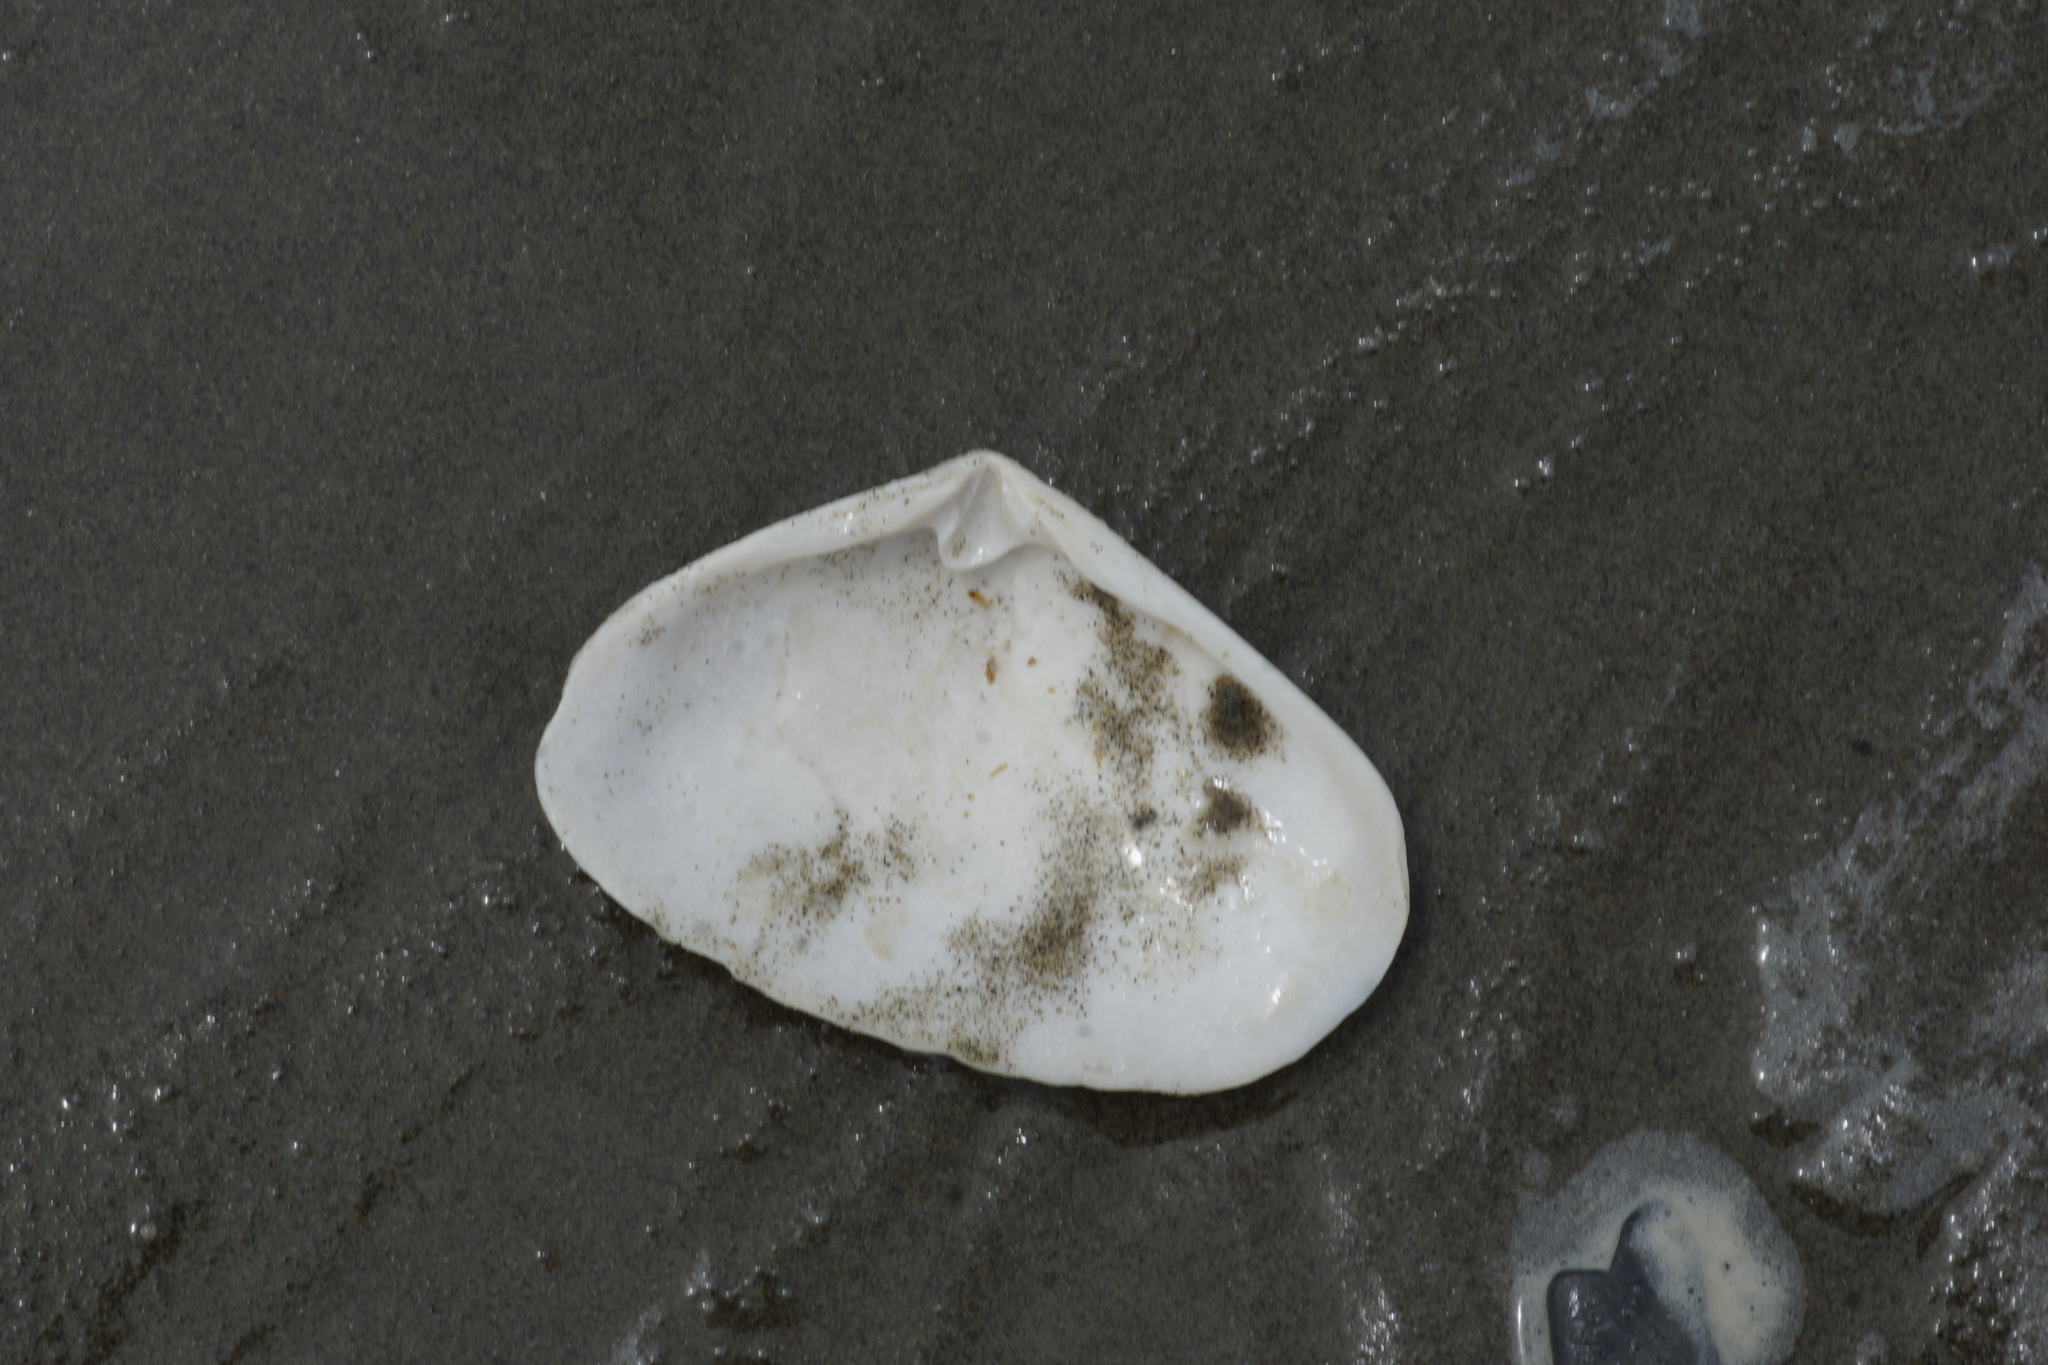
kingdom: Animalia
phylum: Mollusca
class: Bivalvia
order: Venerida
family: Mesodesmatidae
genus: Paphies
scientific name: Paphies donacina
